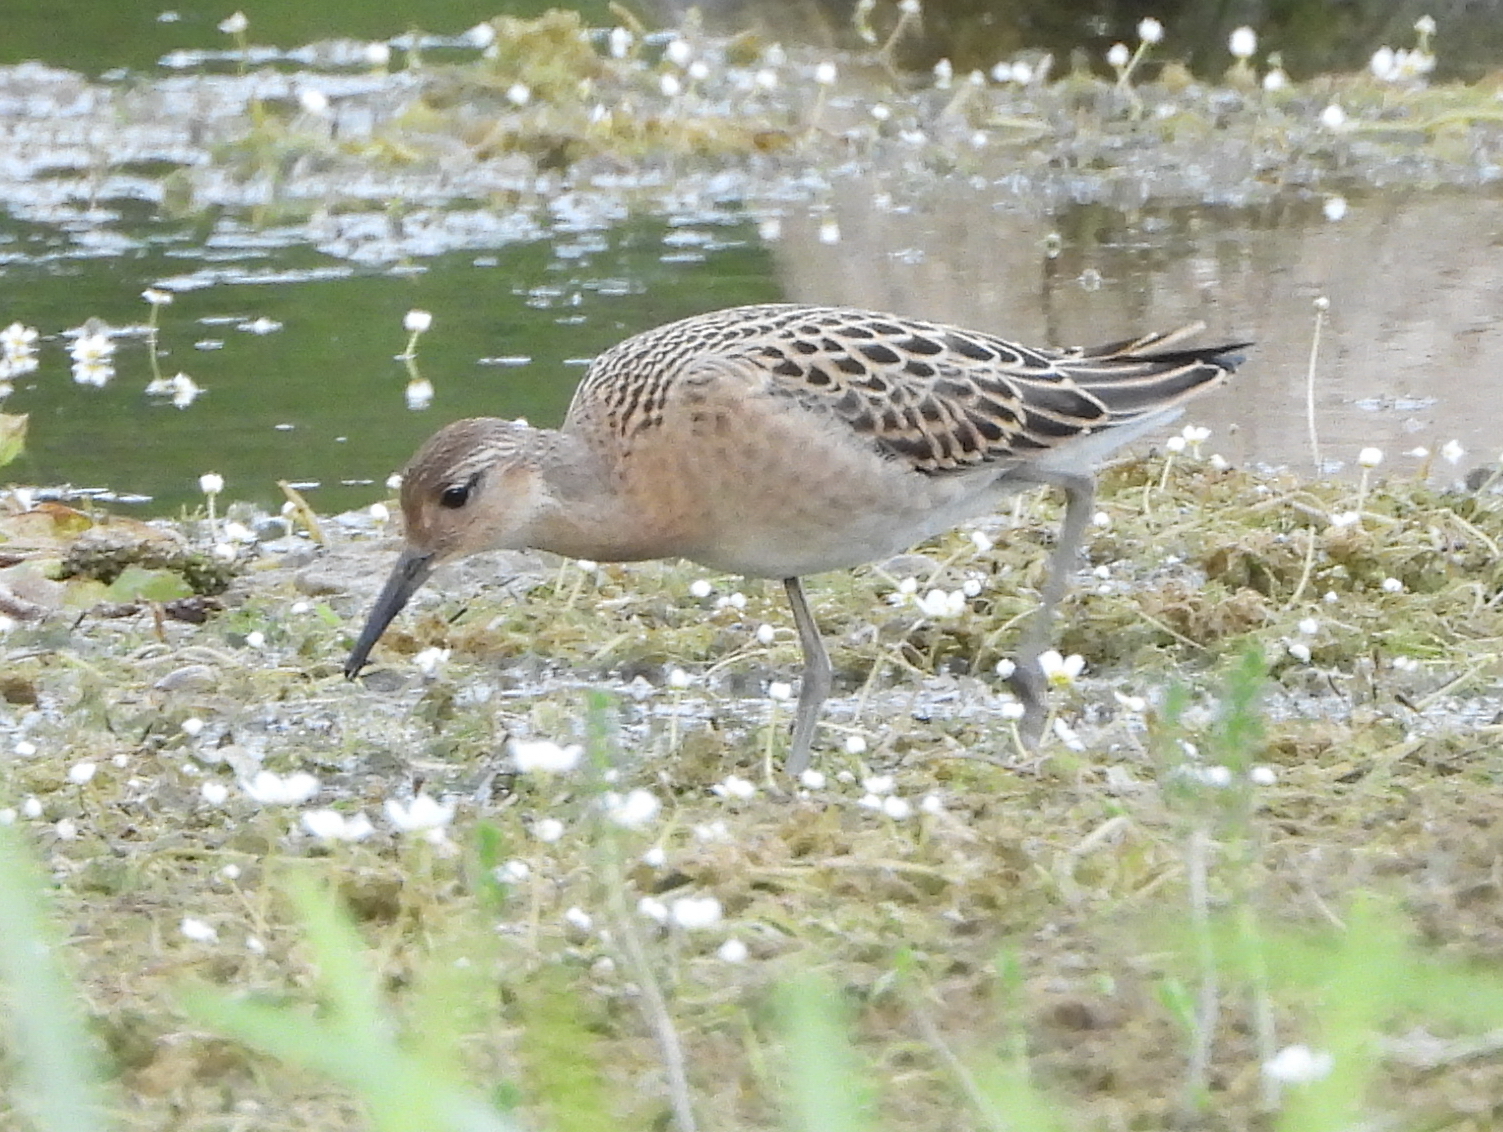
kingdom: Animalia
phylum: Chordata
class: Aves
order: Charadriiformes
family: Scolopacidae
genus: Calidris
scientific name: Calidris pugnax
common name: Ruff
